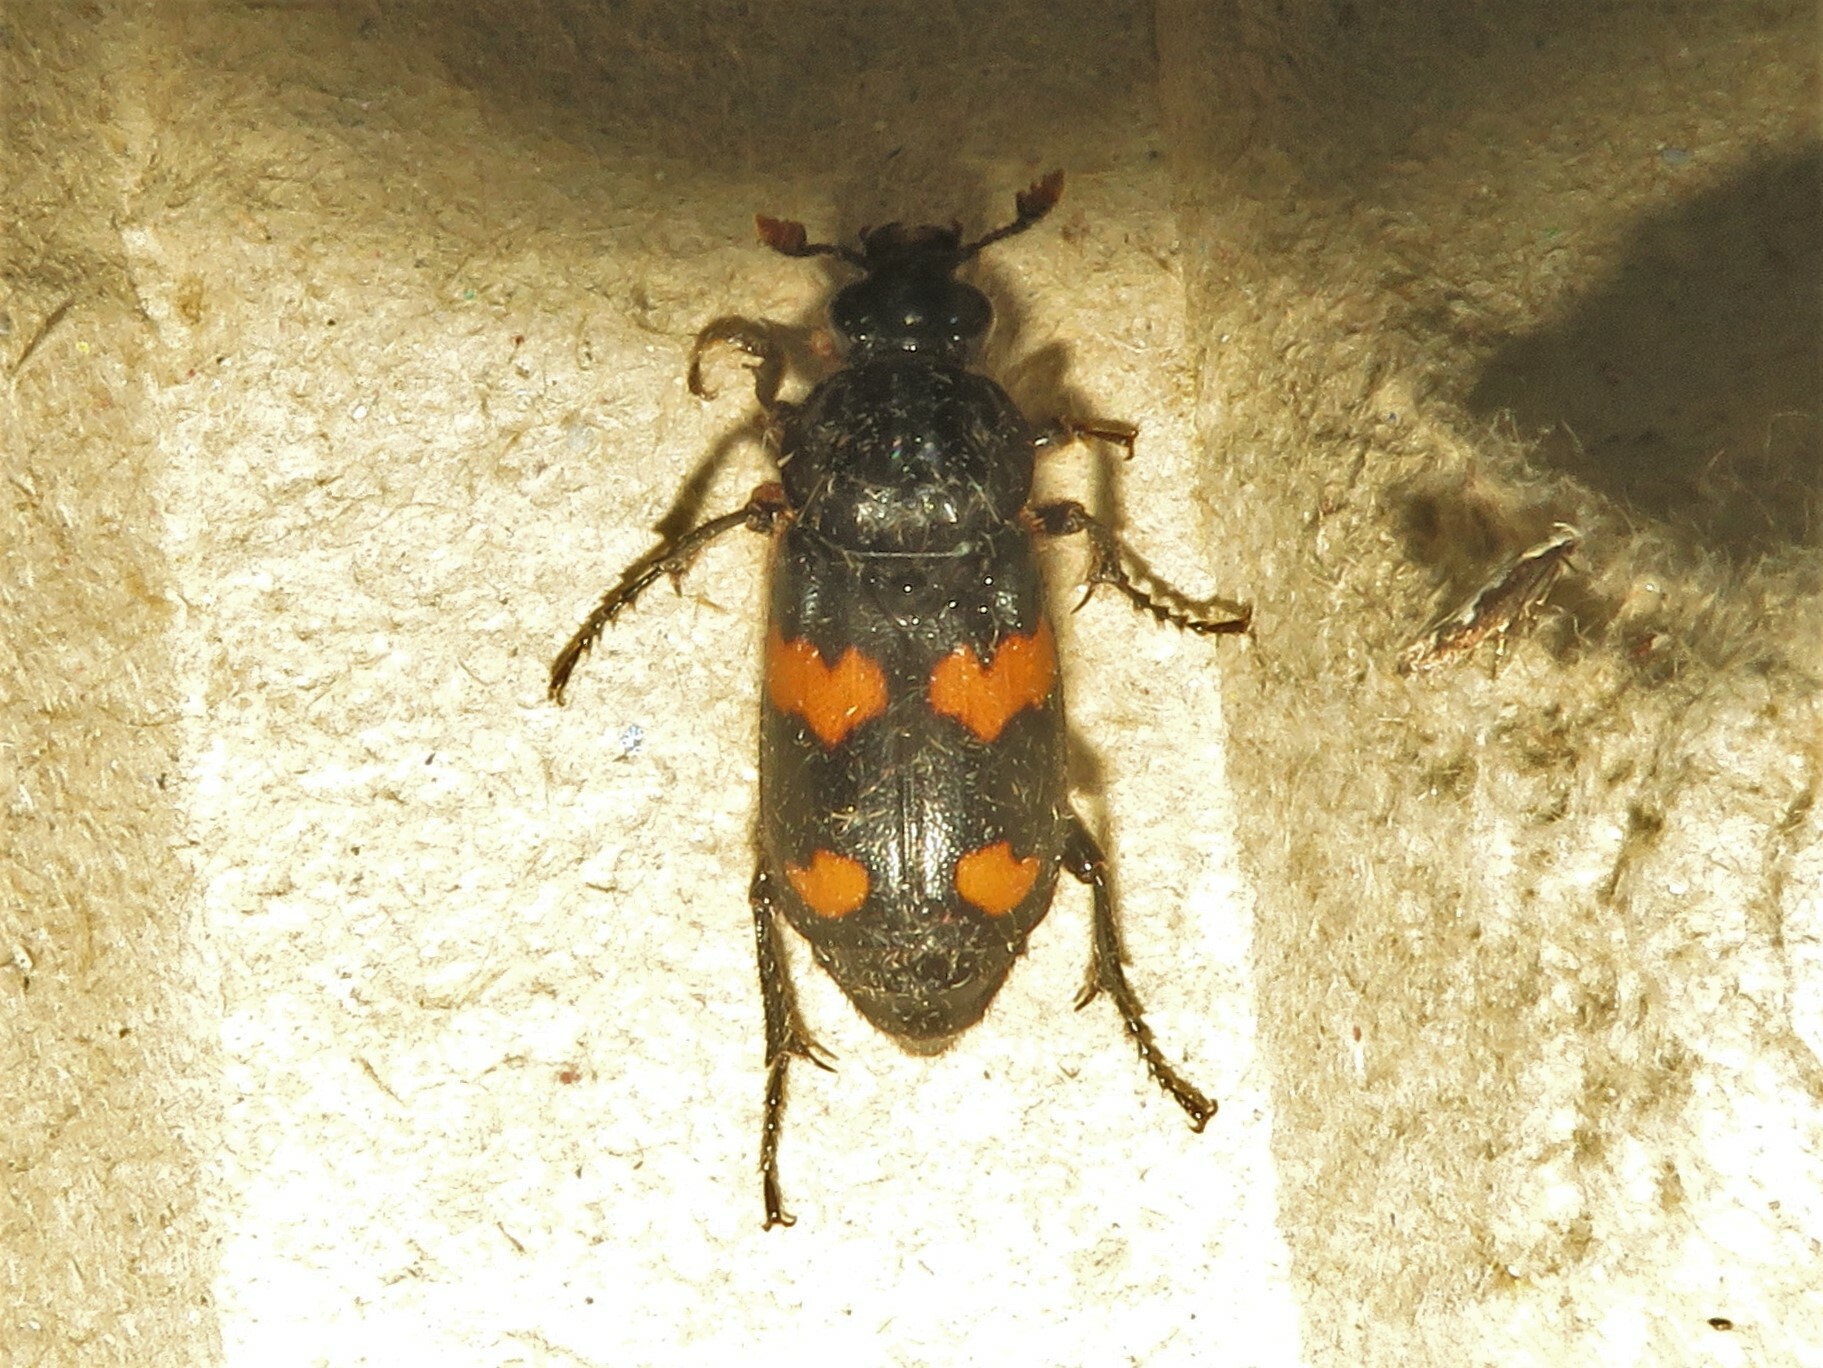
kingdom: Animalia
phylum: Arthropoda
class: Insecta
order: Coleoptera
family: Staphylinidae
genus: Nicrophorus
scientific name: Nicrophorus orbicollis
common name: Roundneck sexton beetle
